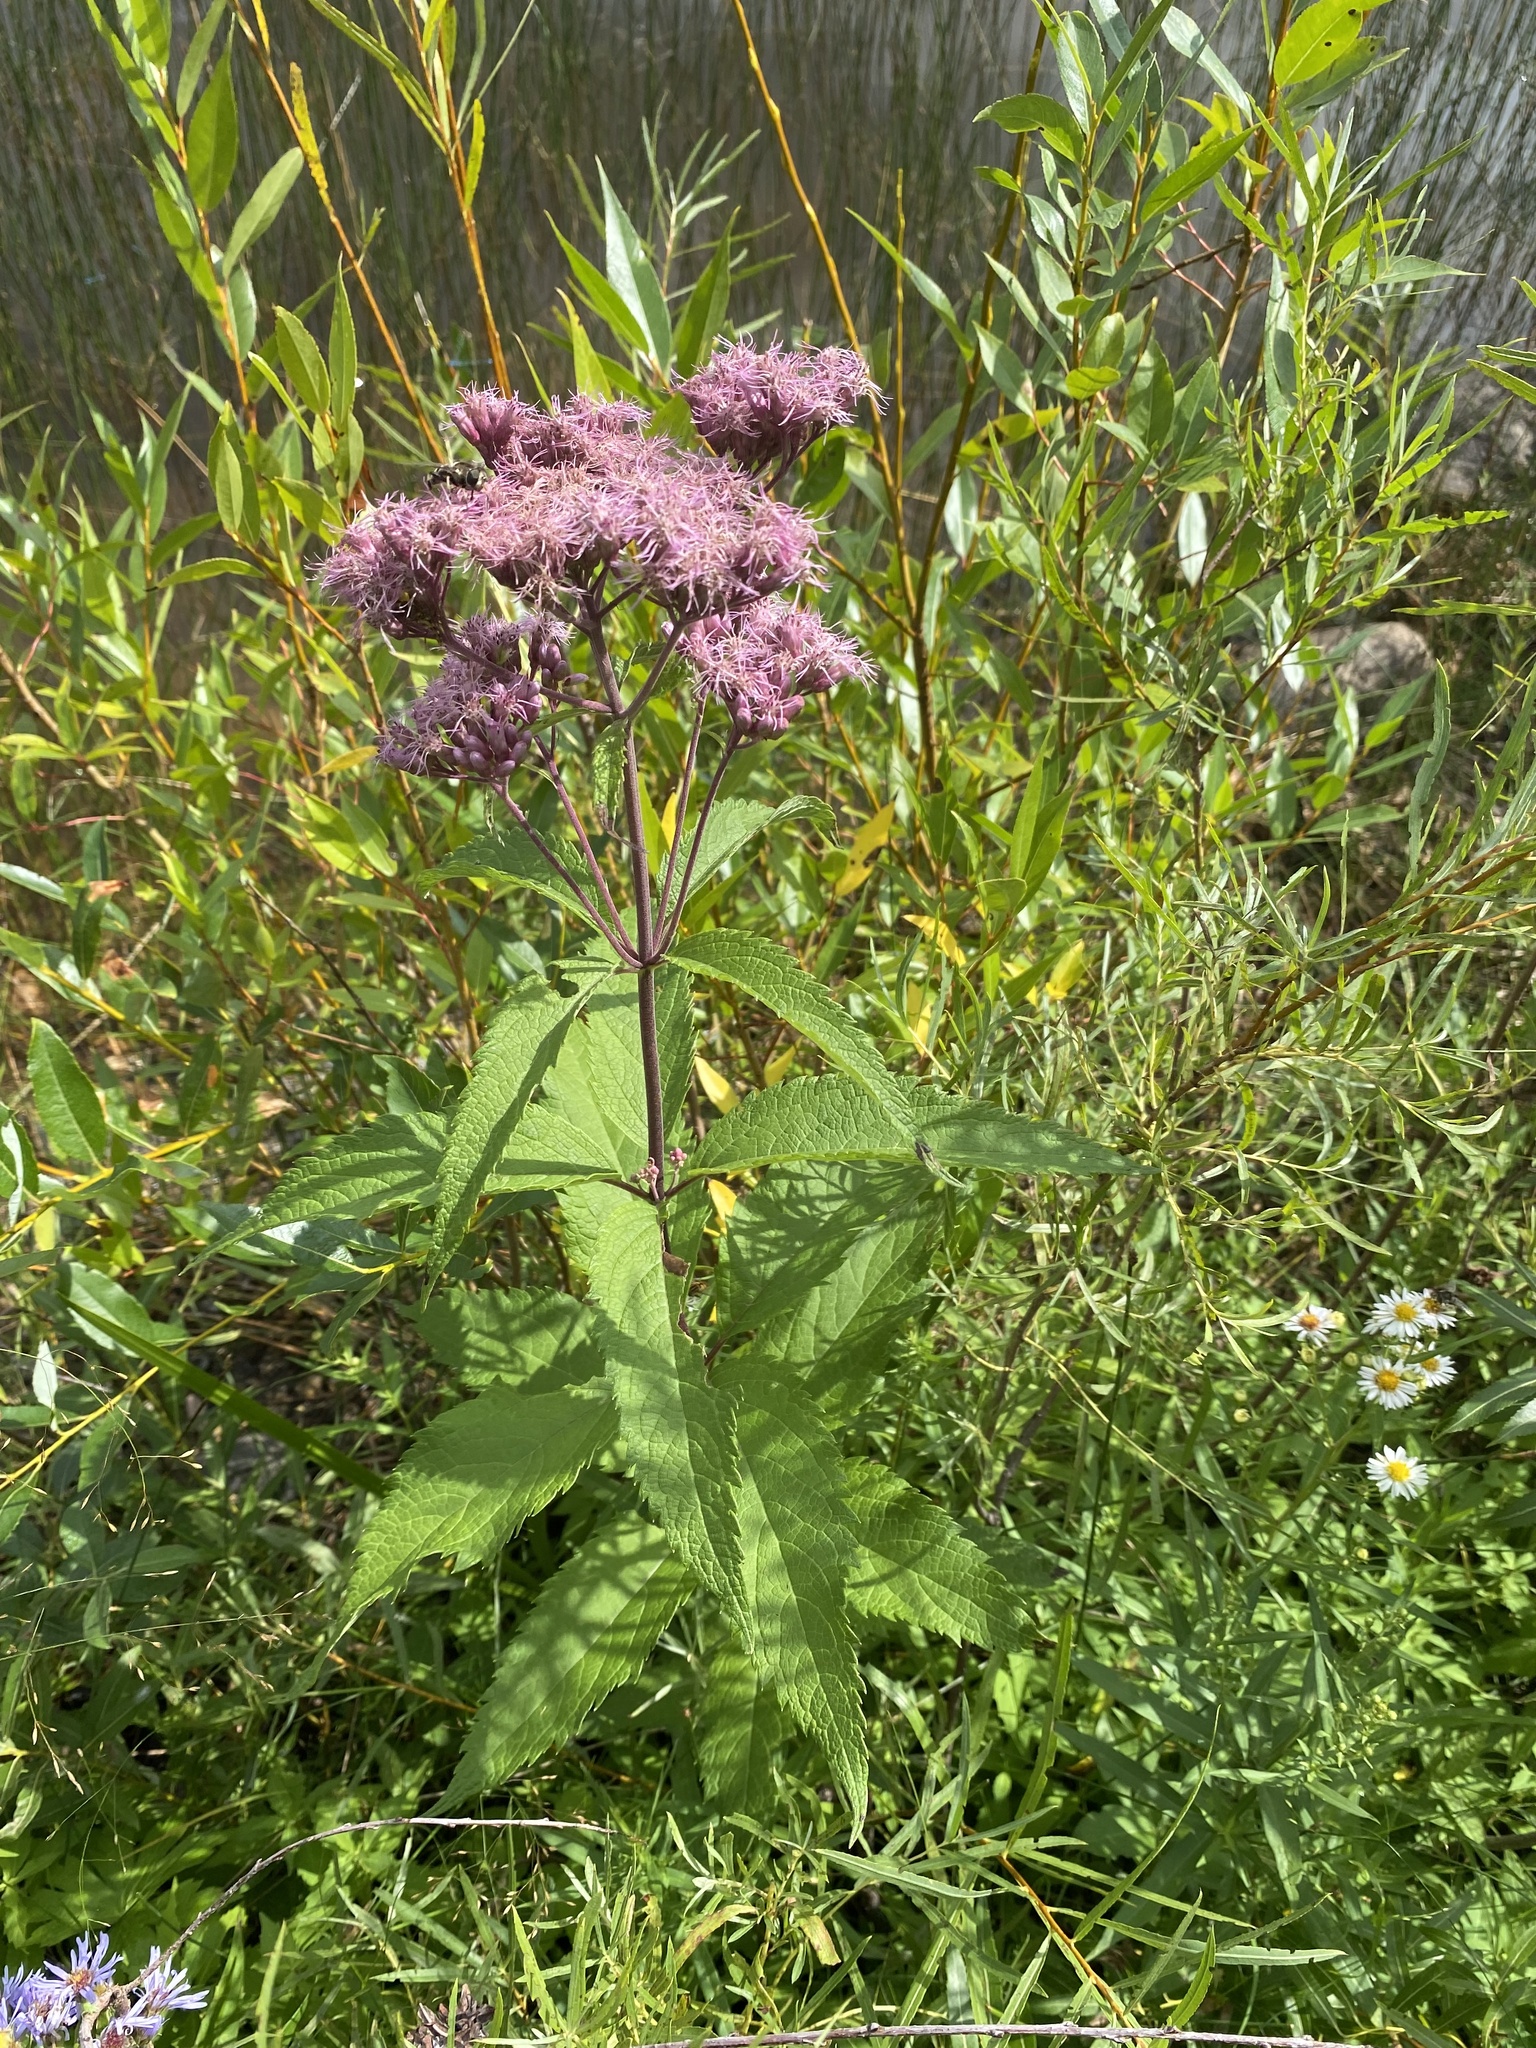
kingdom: Plantae
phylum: Tracheophyta
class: Magnoliopsida
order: Asterales
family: Asteraceae
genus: Eutrochium
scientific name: Eutrochium maculatum
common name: Spotted joe pye weed
